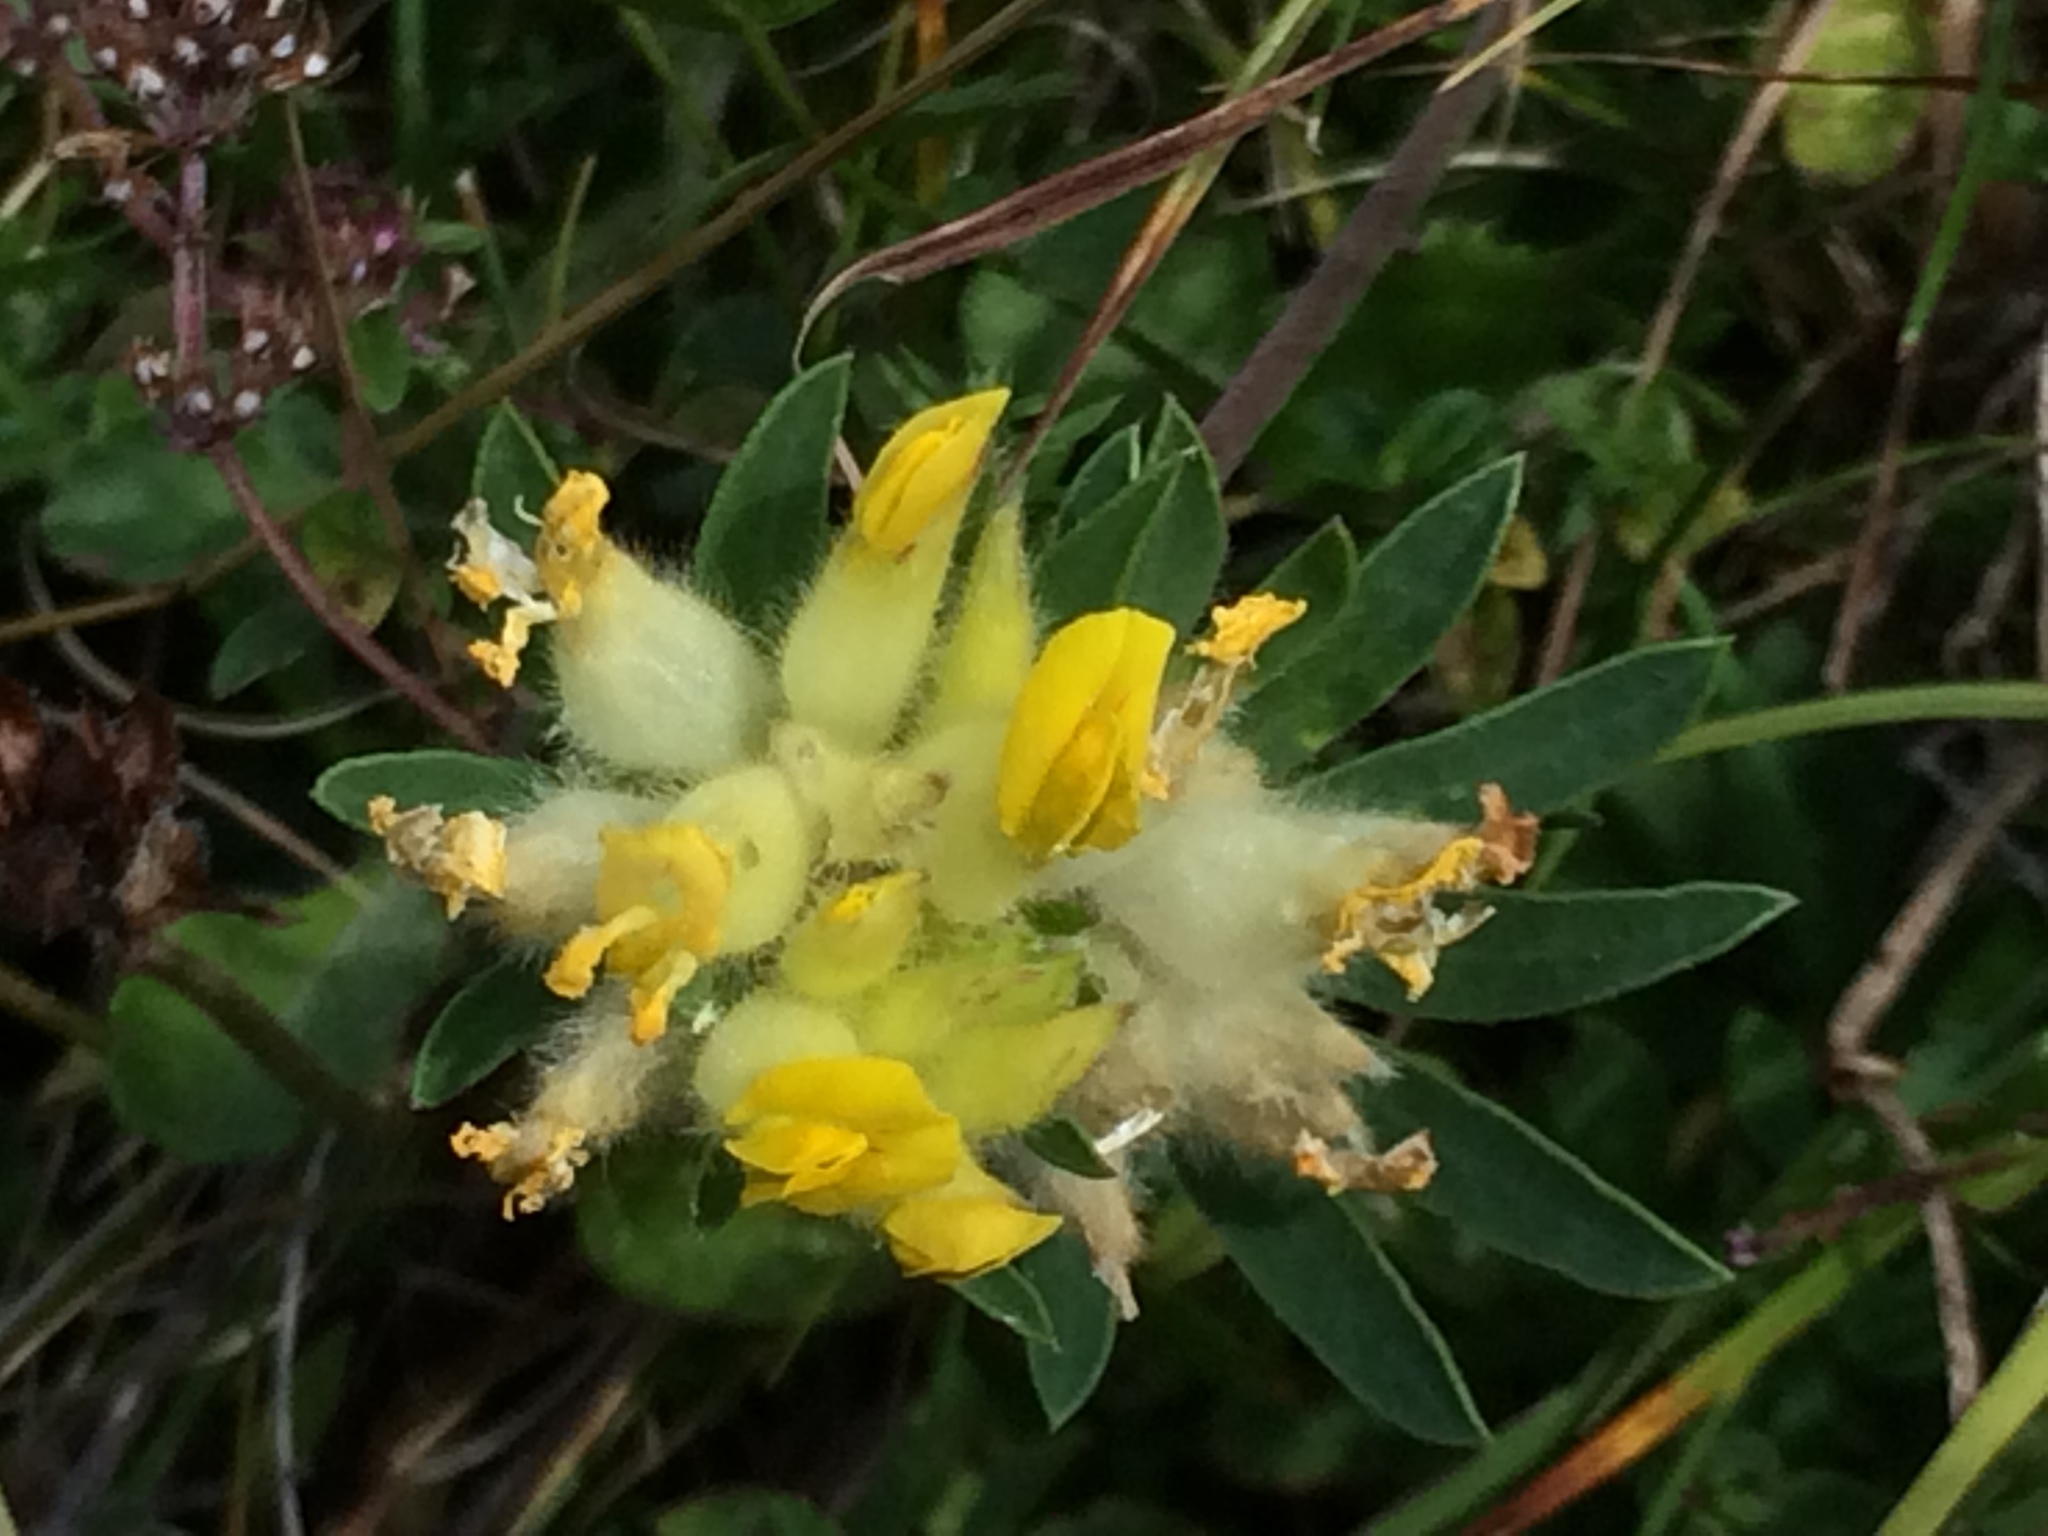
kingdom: Plantae
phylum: Tracheophyta
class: Magnoliopsida
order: Fabales
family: Fabaceae
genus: Anthyllis
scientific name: Anthyllis vulneraria
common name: Kidney vetch
